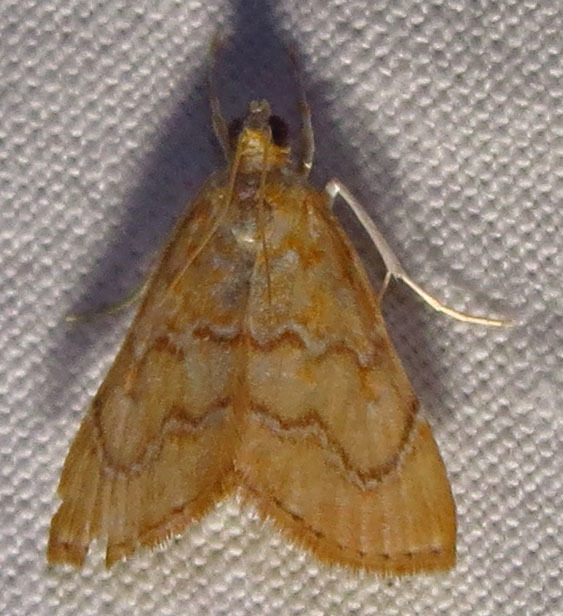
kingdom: Animalia
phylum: Arthropoda
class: Insecta
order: Lepidoptera
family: Crambidae
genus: Glaphyria
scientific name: Glaphyria sesquistrialis
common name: White-roped glaphyria
